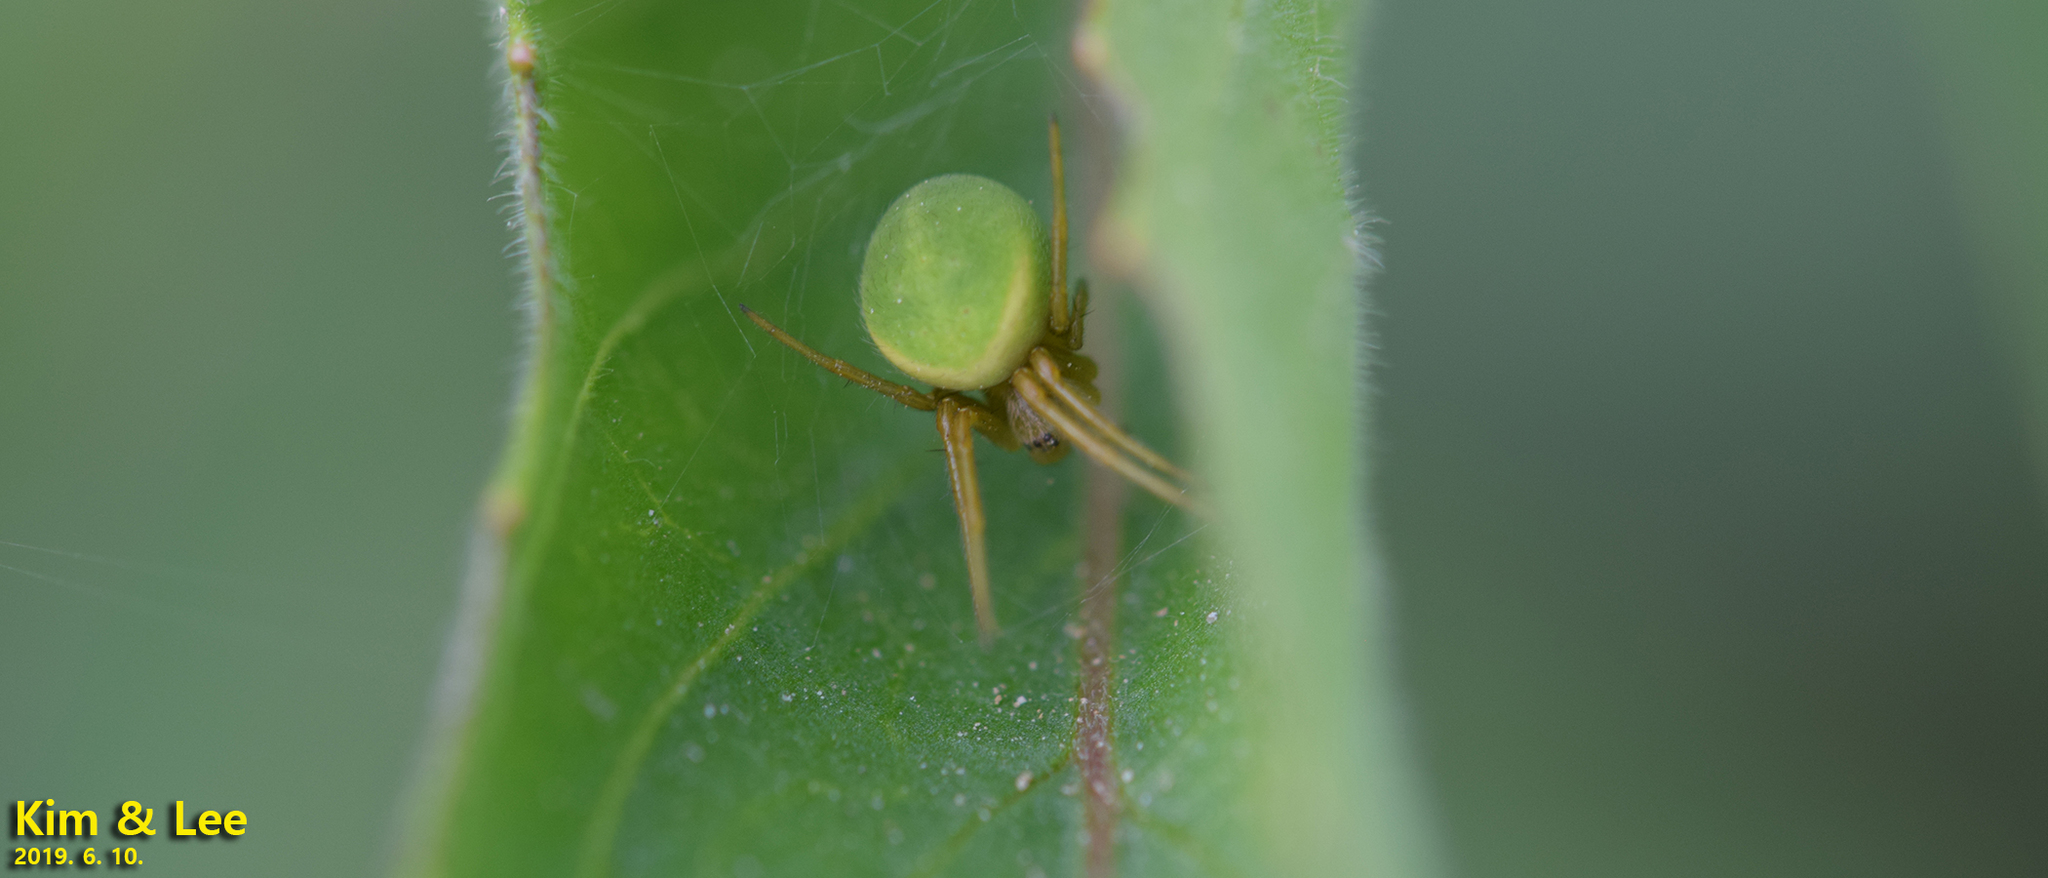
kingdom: Animalia
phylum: Arthropoda
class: Arachnida
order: Araneae
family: Araneidae
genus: Neoscona
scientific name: Neoscona scylloides
